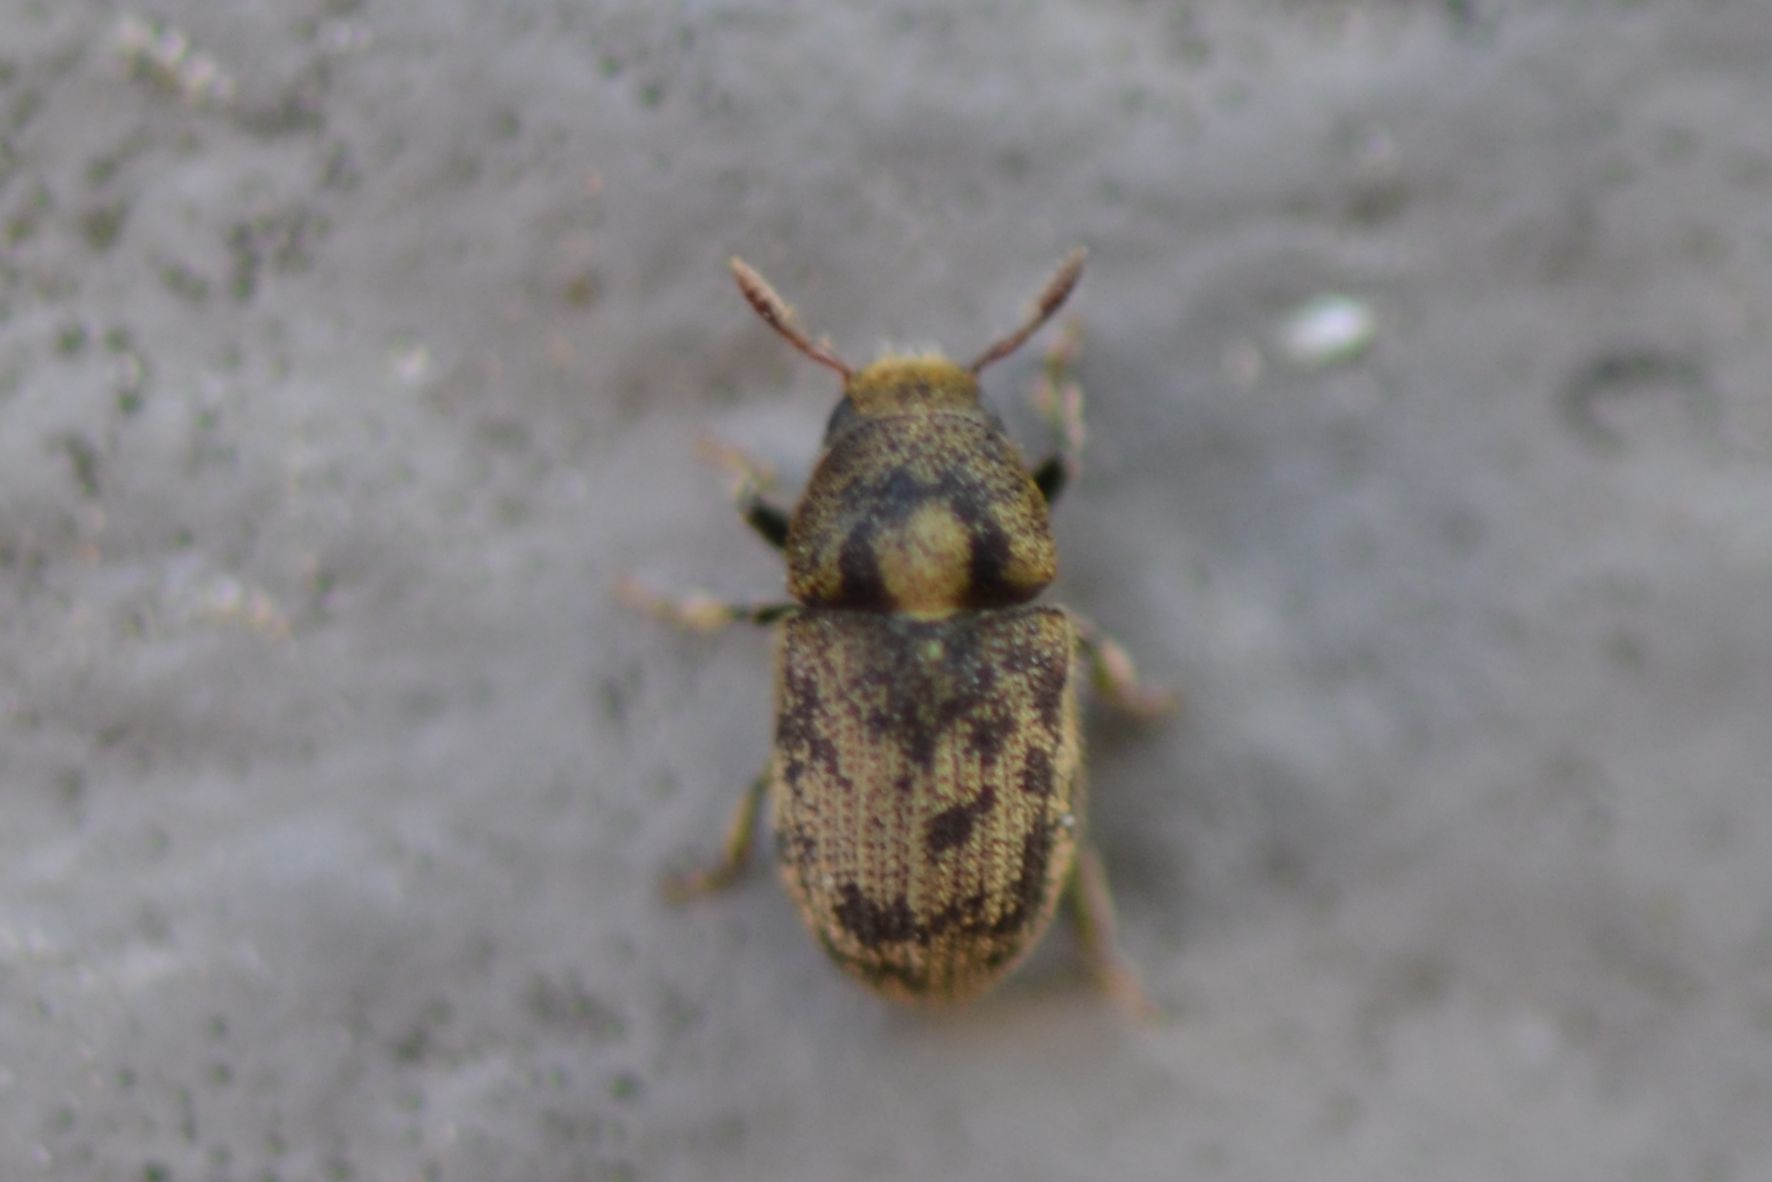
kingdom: Animalia
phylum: Arthropoda
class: Insecta
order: Coleoptera
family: Curculionidae
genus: Hylesinus
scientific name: Hylesinus varius
